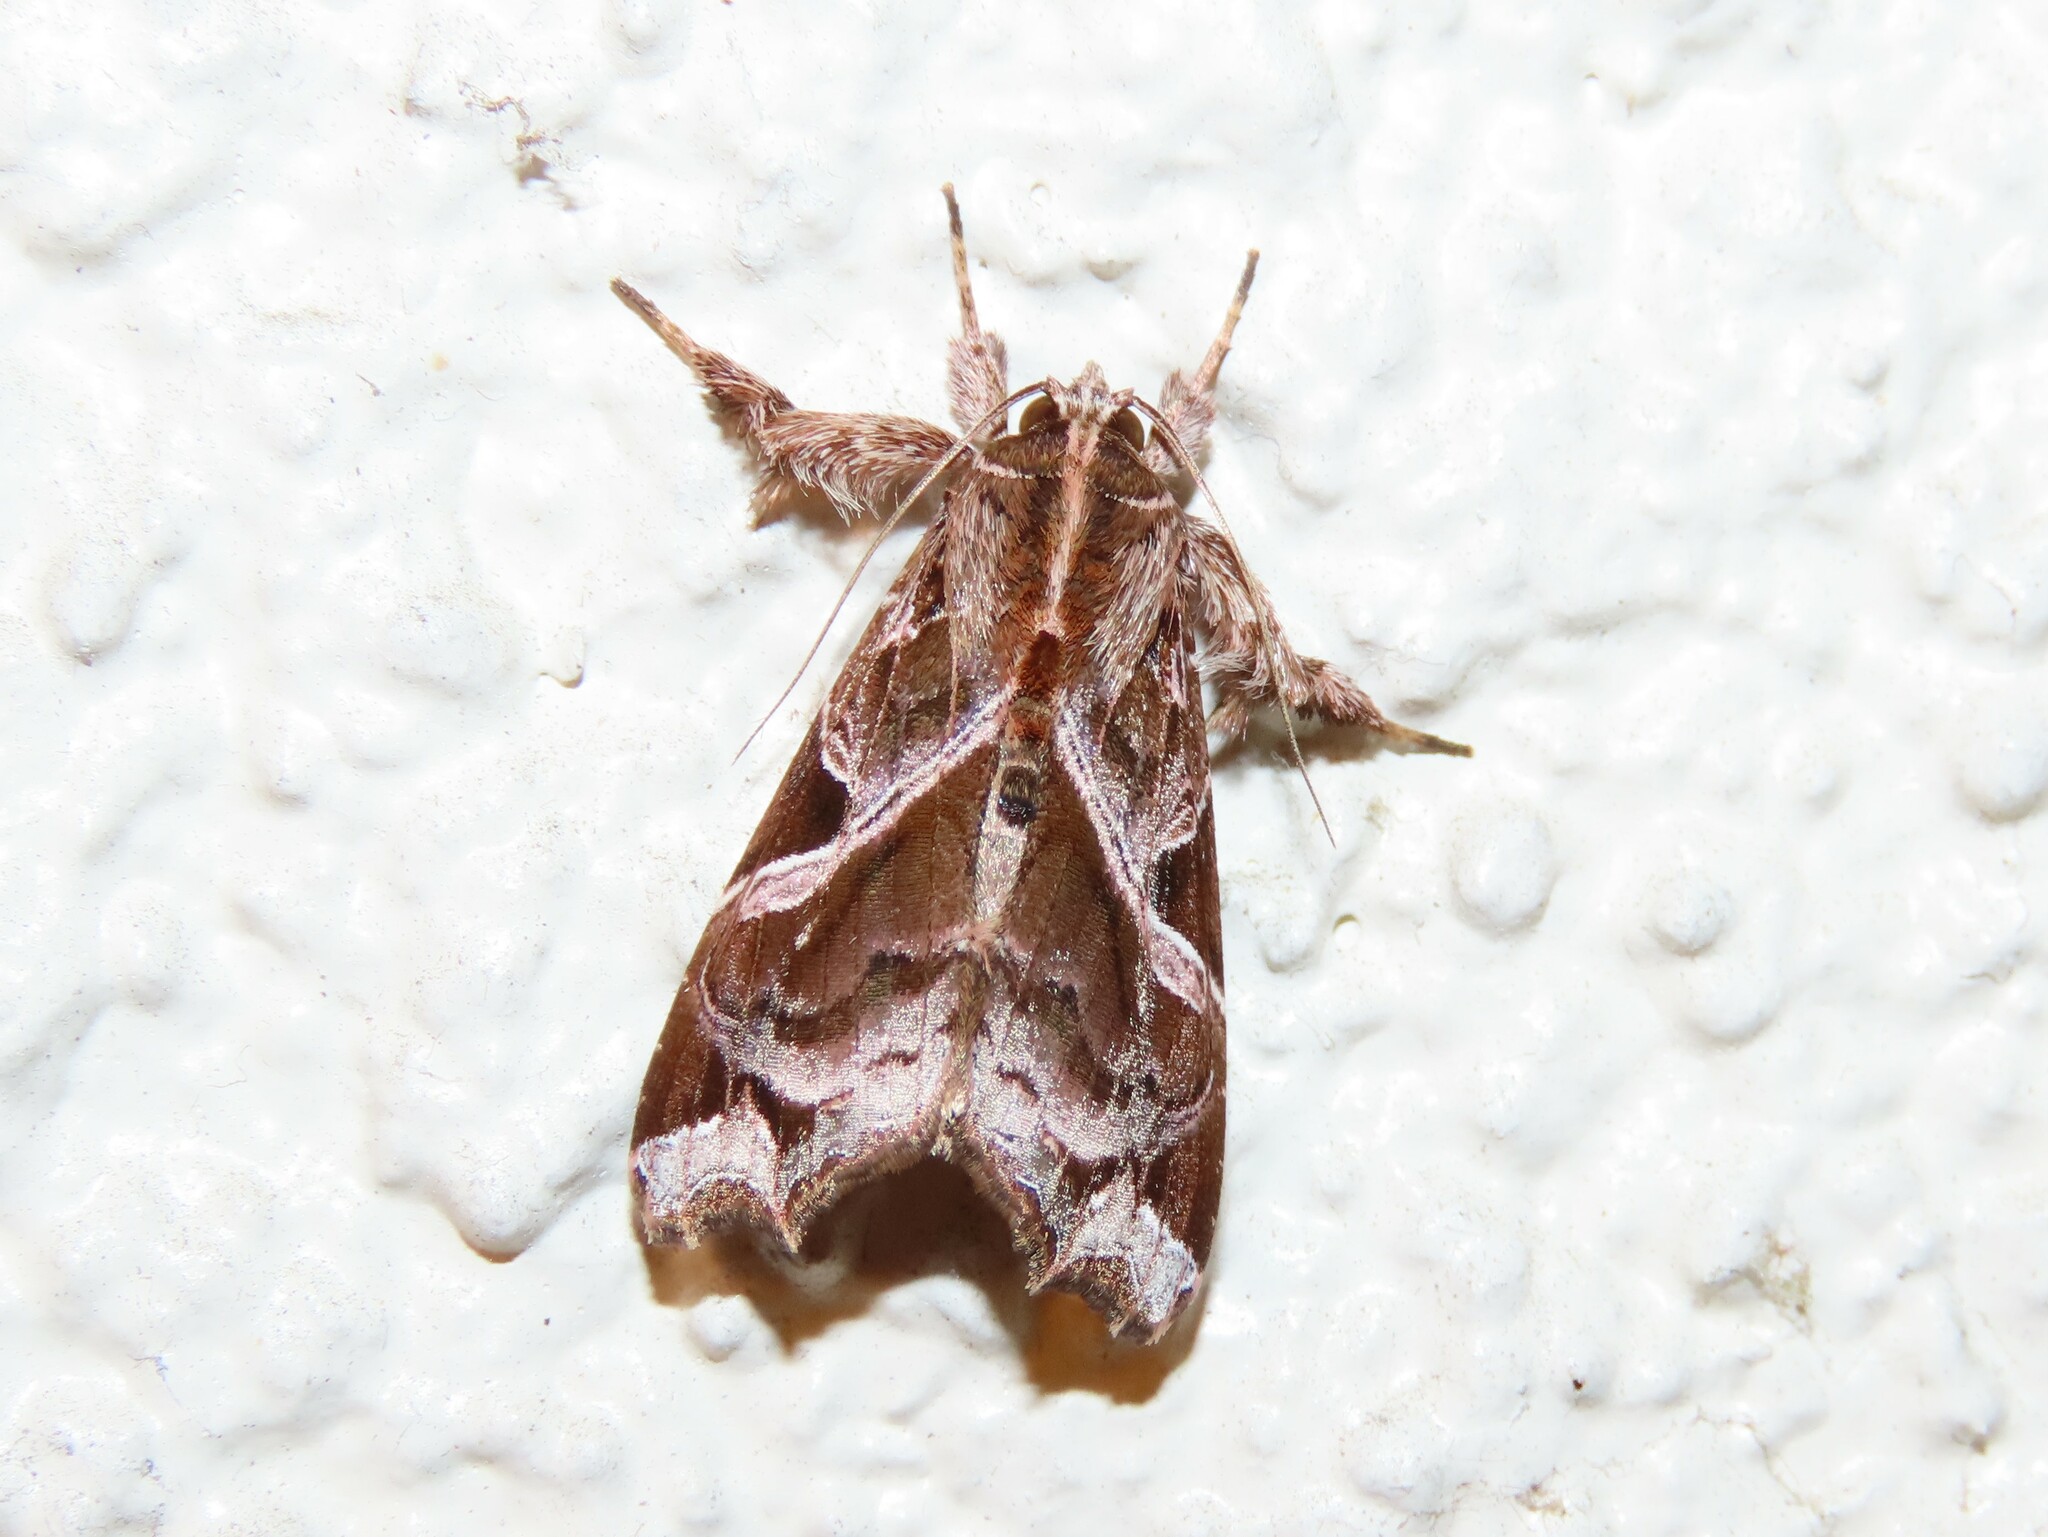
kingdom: Animalia
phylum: Arthropoda
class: Insecta
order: Lepidoptera
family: Noctuidae
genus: Callopistria
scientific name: Callopistria floridensis
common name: Florida fern moth
